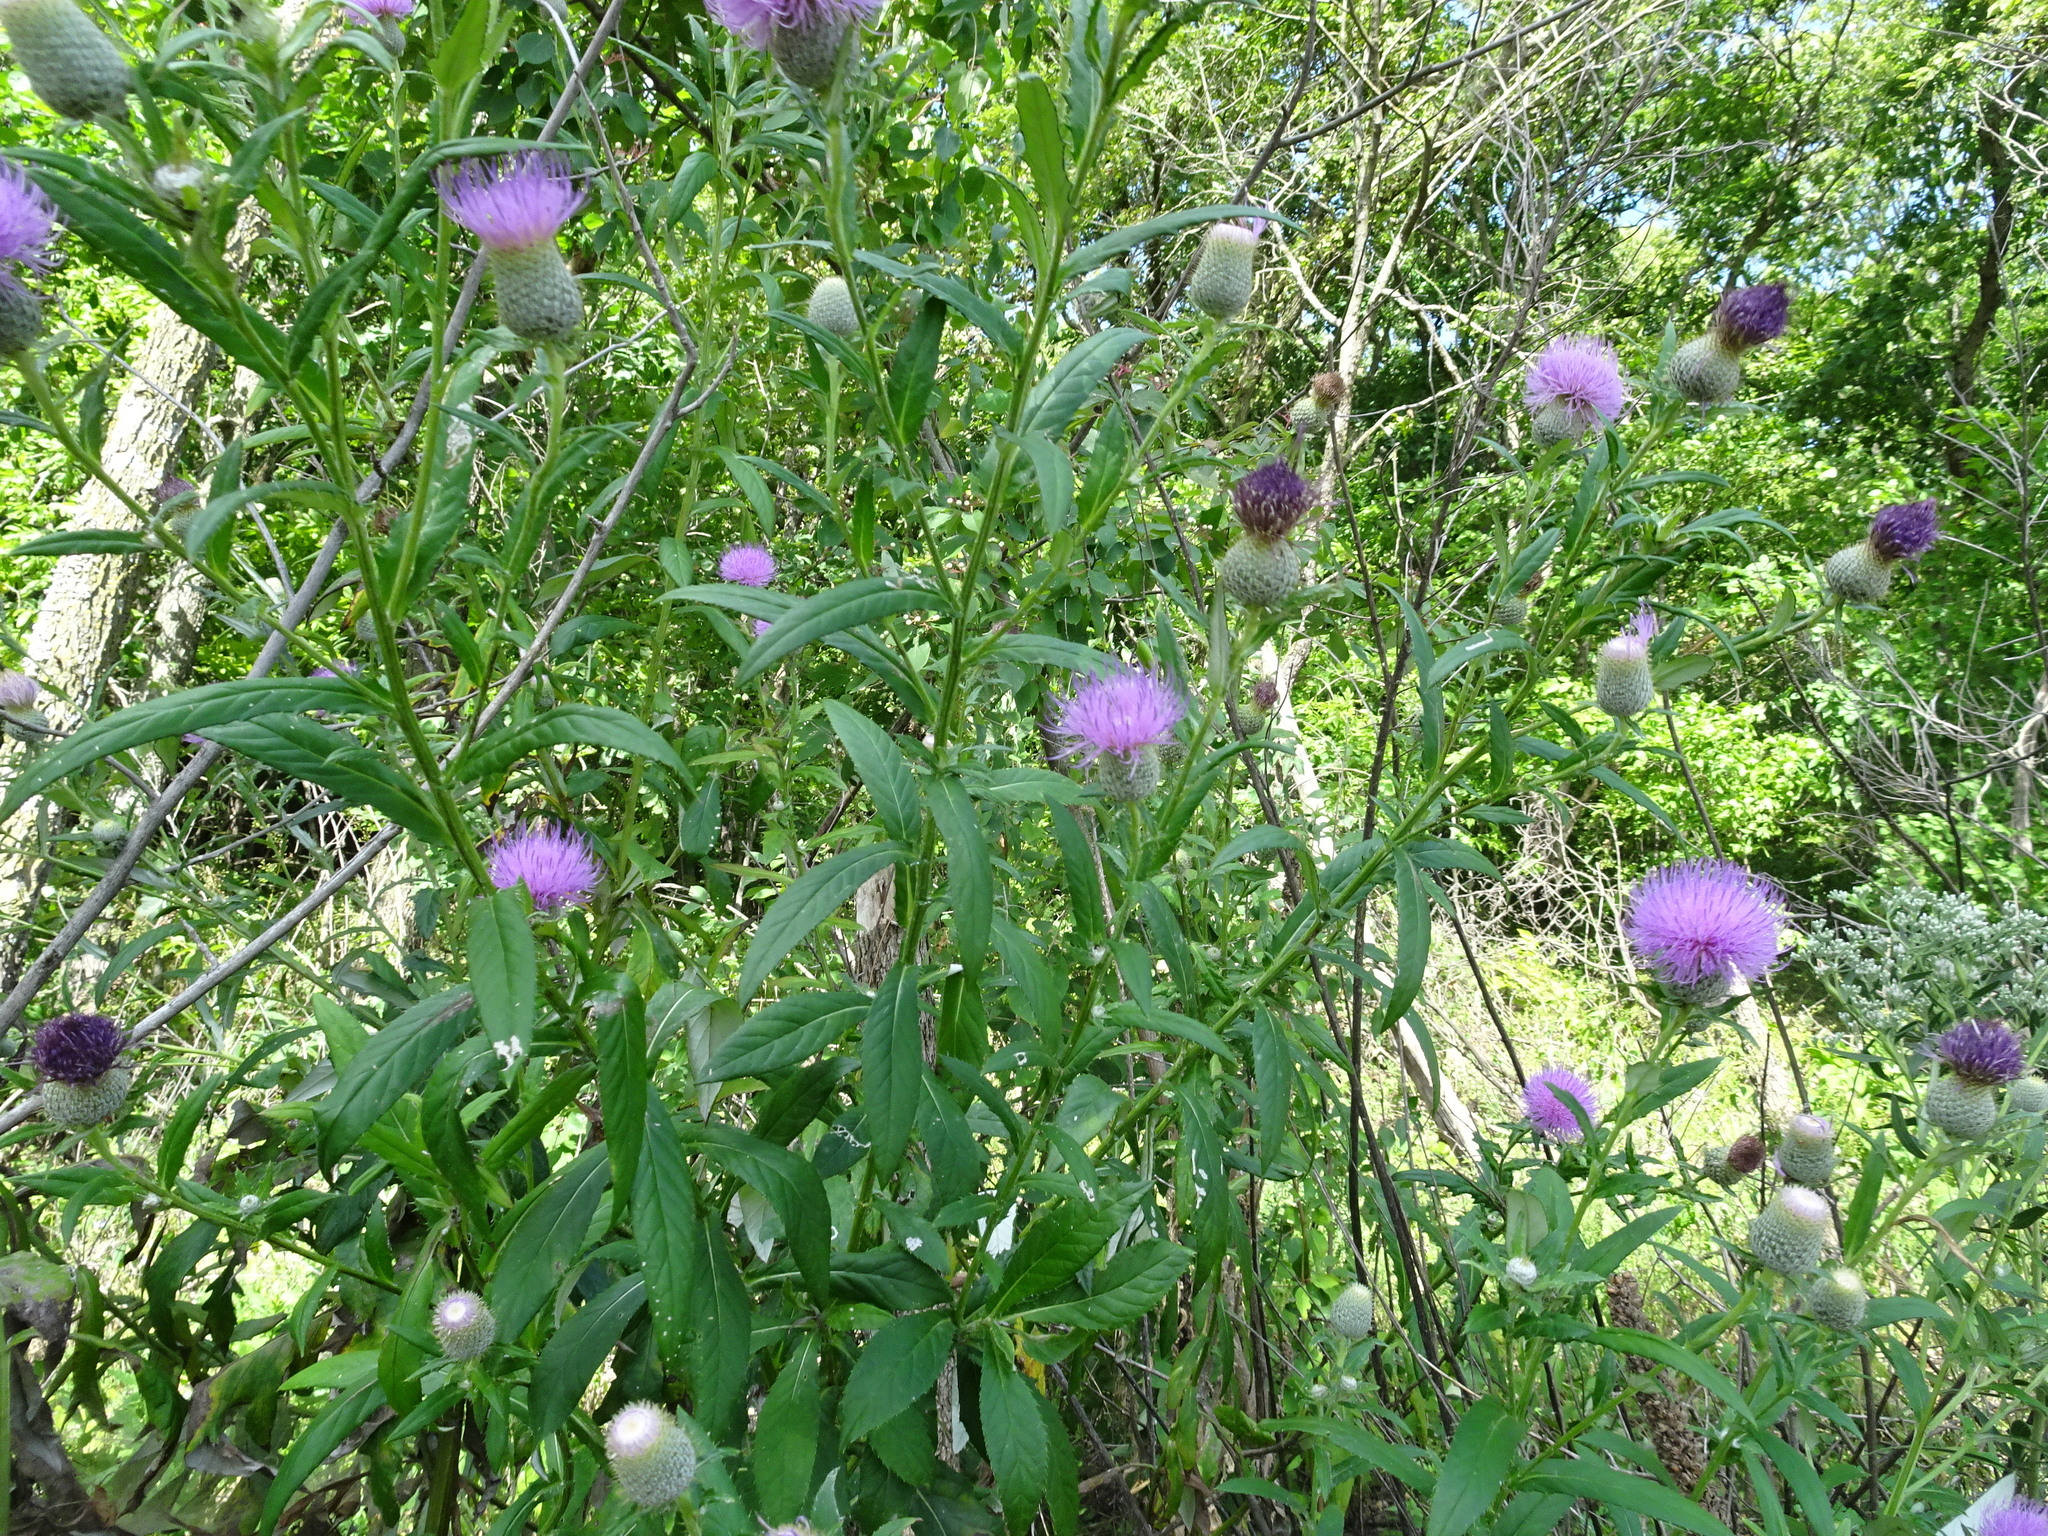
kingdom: Plantae
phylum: Tracheophyta
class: Magnoliopsida
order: Asterales
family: Asteraceae
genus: Cirsium
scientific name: Cirsium altissimum
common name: Roadside thistle
